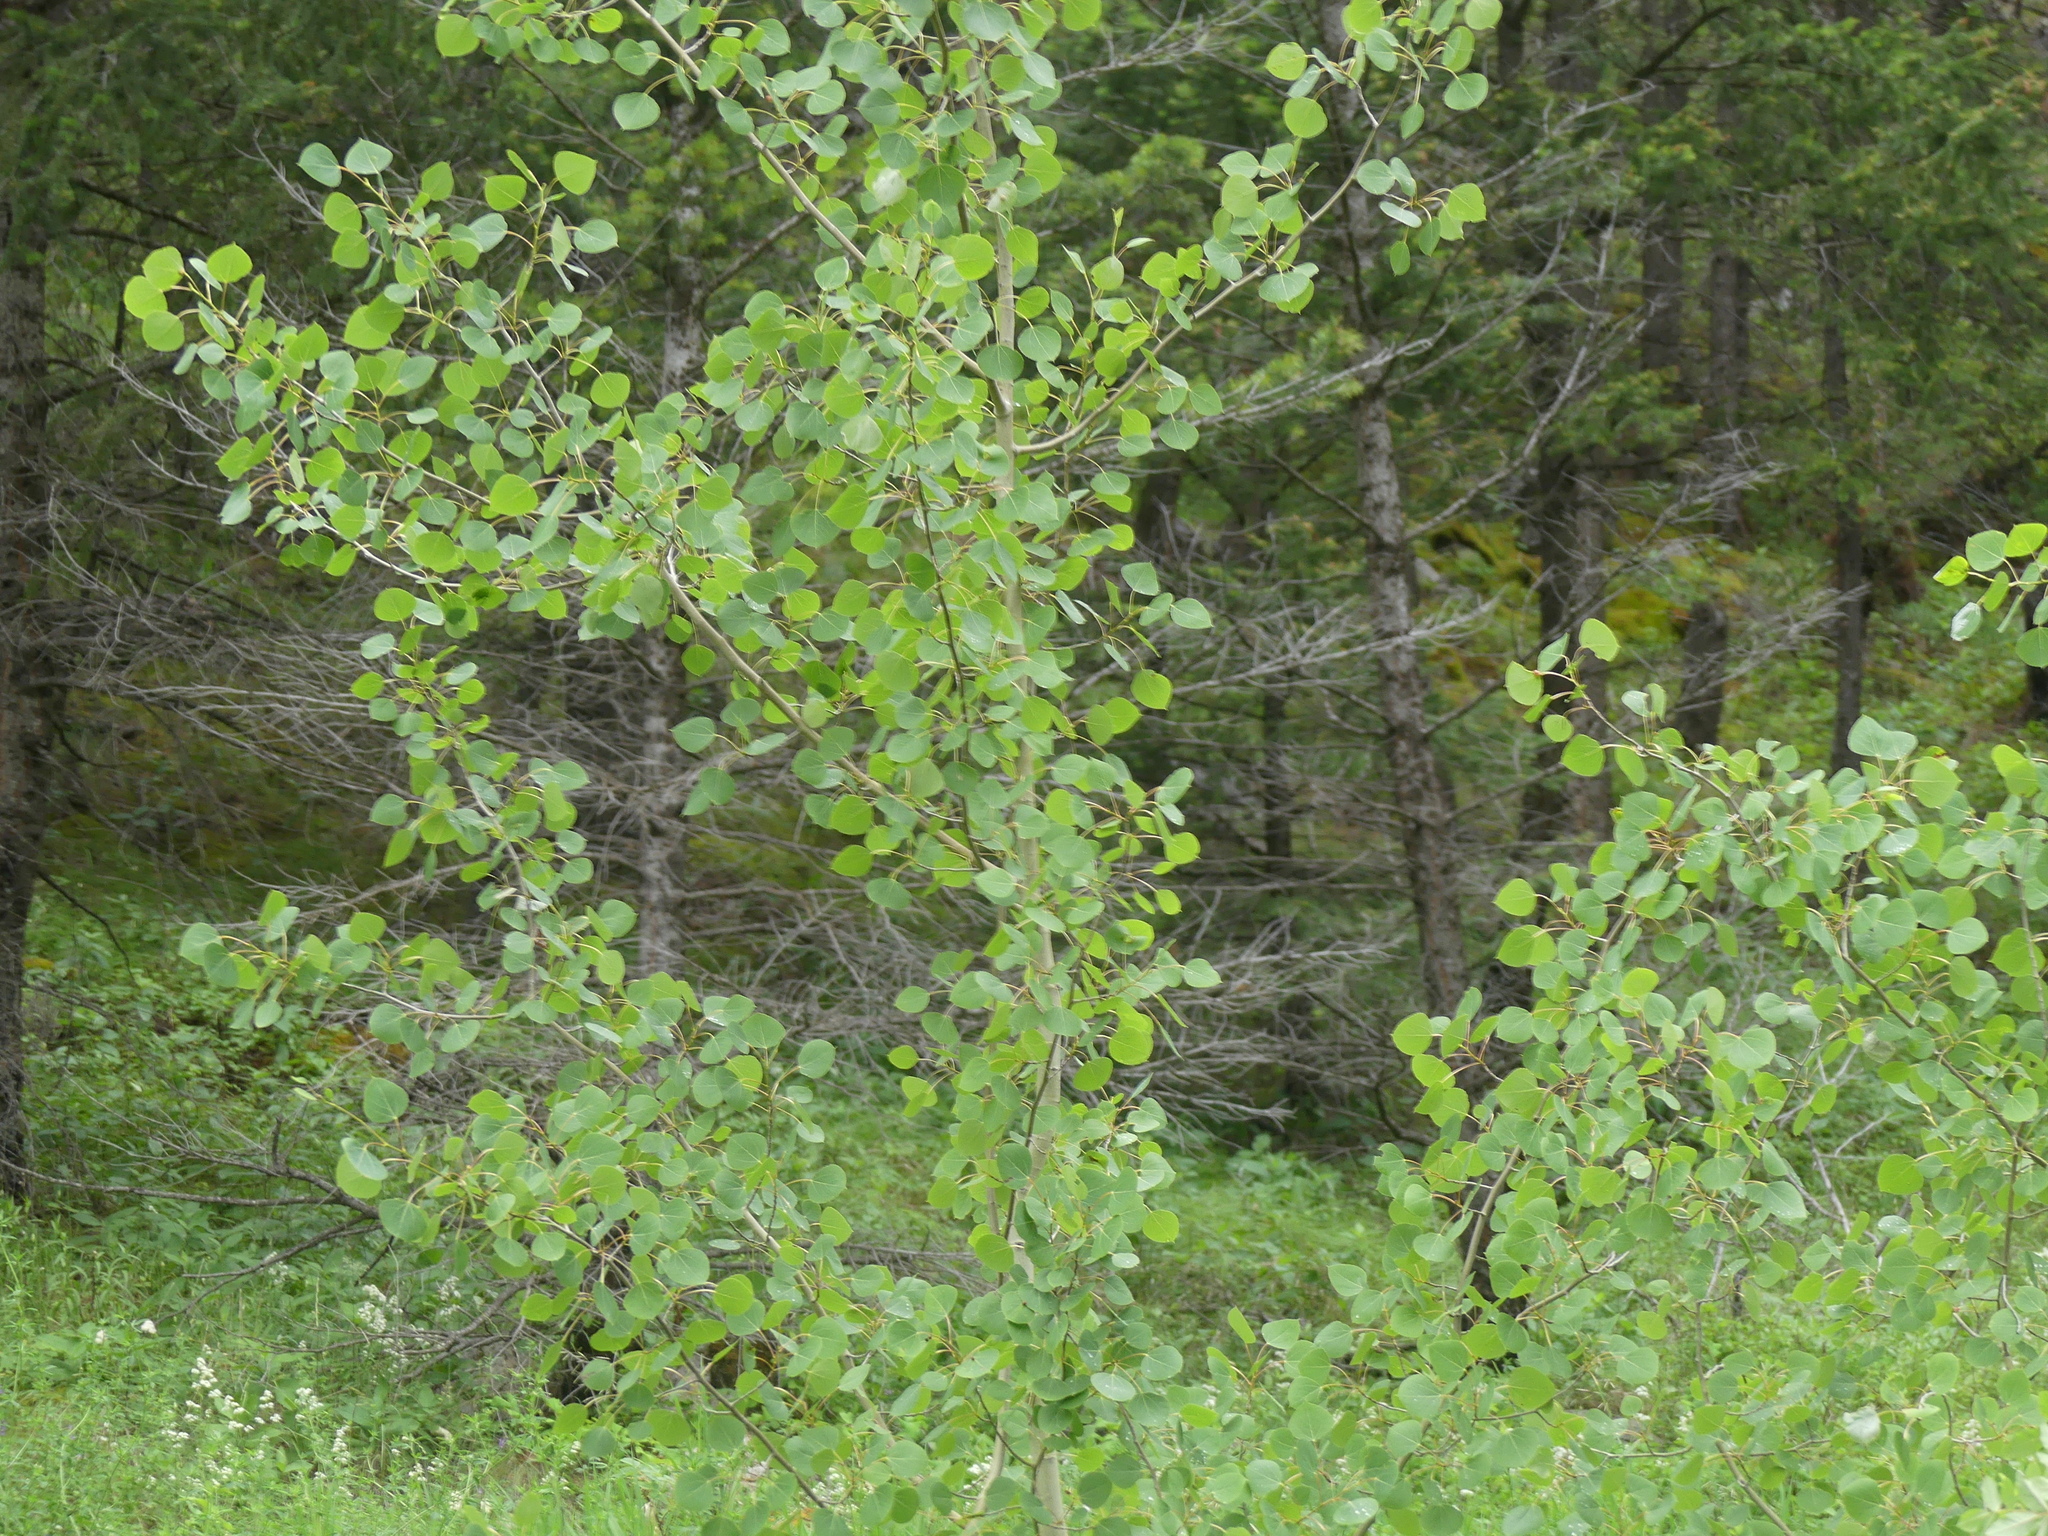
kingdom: Plantae
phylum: Tracheophyta
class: Magnoliopsida
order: Malpighiales
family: Salicaceae
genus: Populus
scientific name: Populus tremuloides
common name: Quaking aspen
